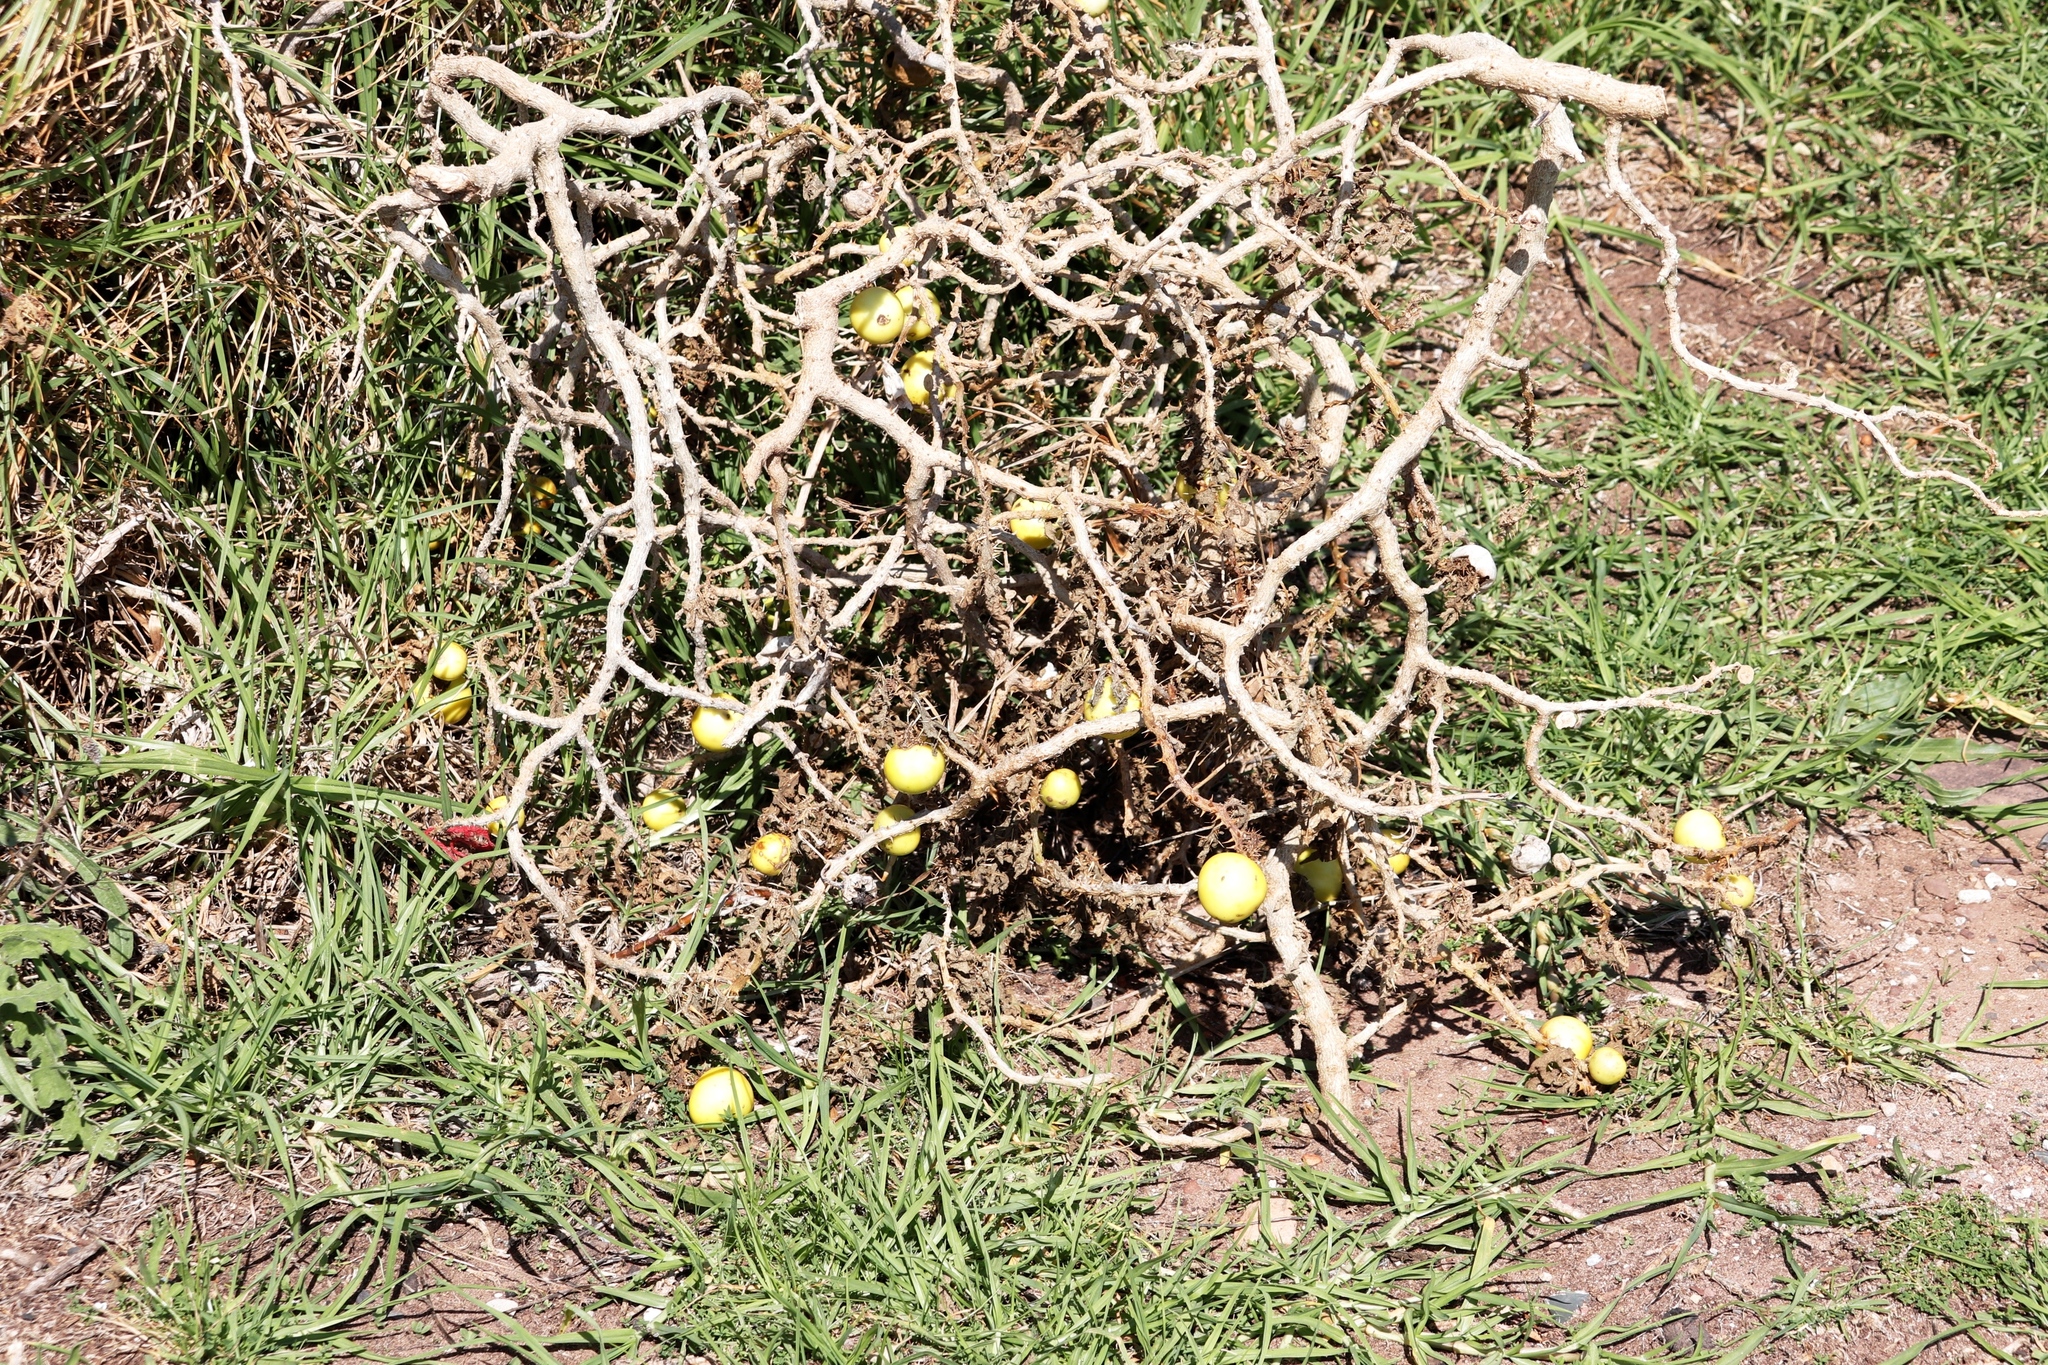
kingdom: Plantae
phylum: Tracheophyta
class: Magnoliopsida
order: Solanales
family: Solanaceae
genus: Solanum
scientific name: Solanum linnaeanum
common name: Nightshade
